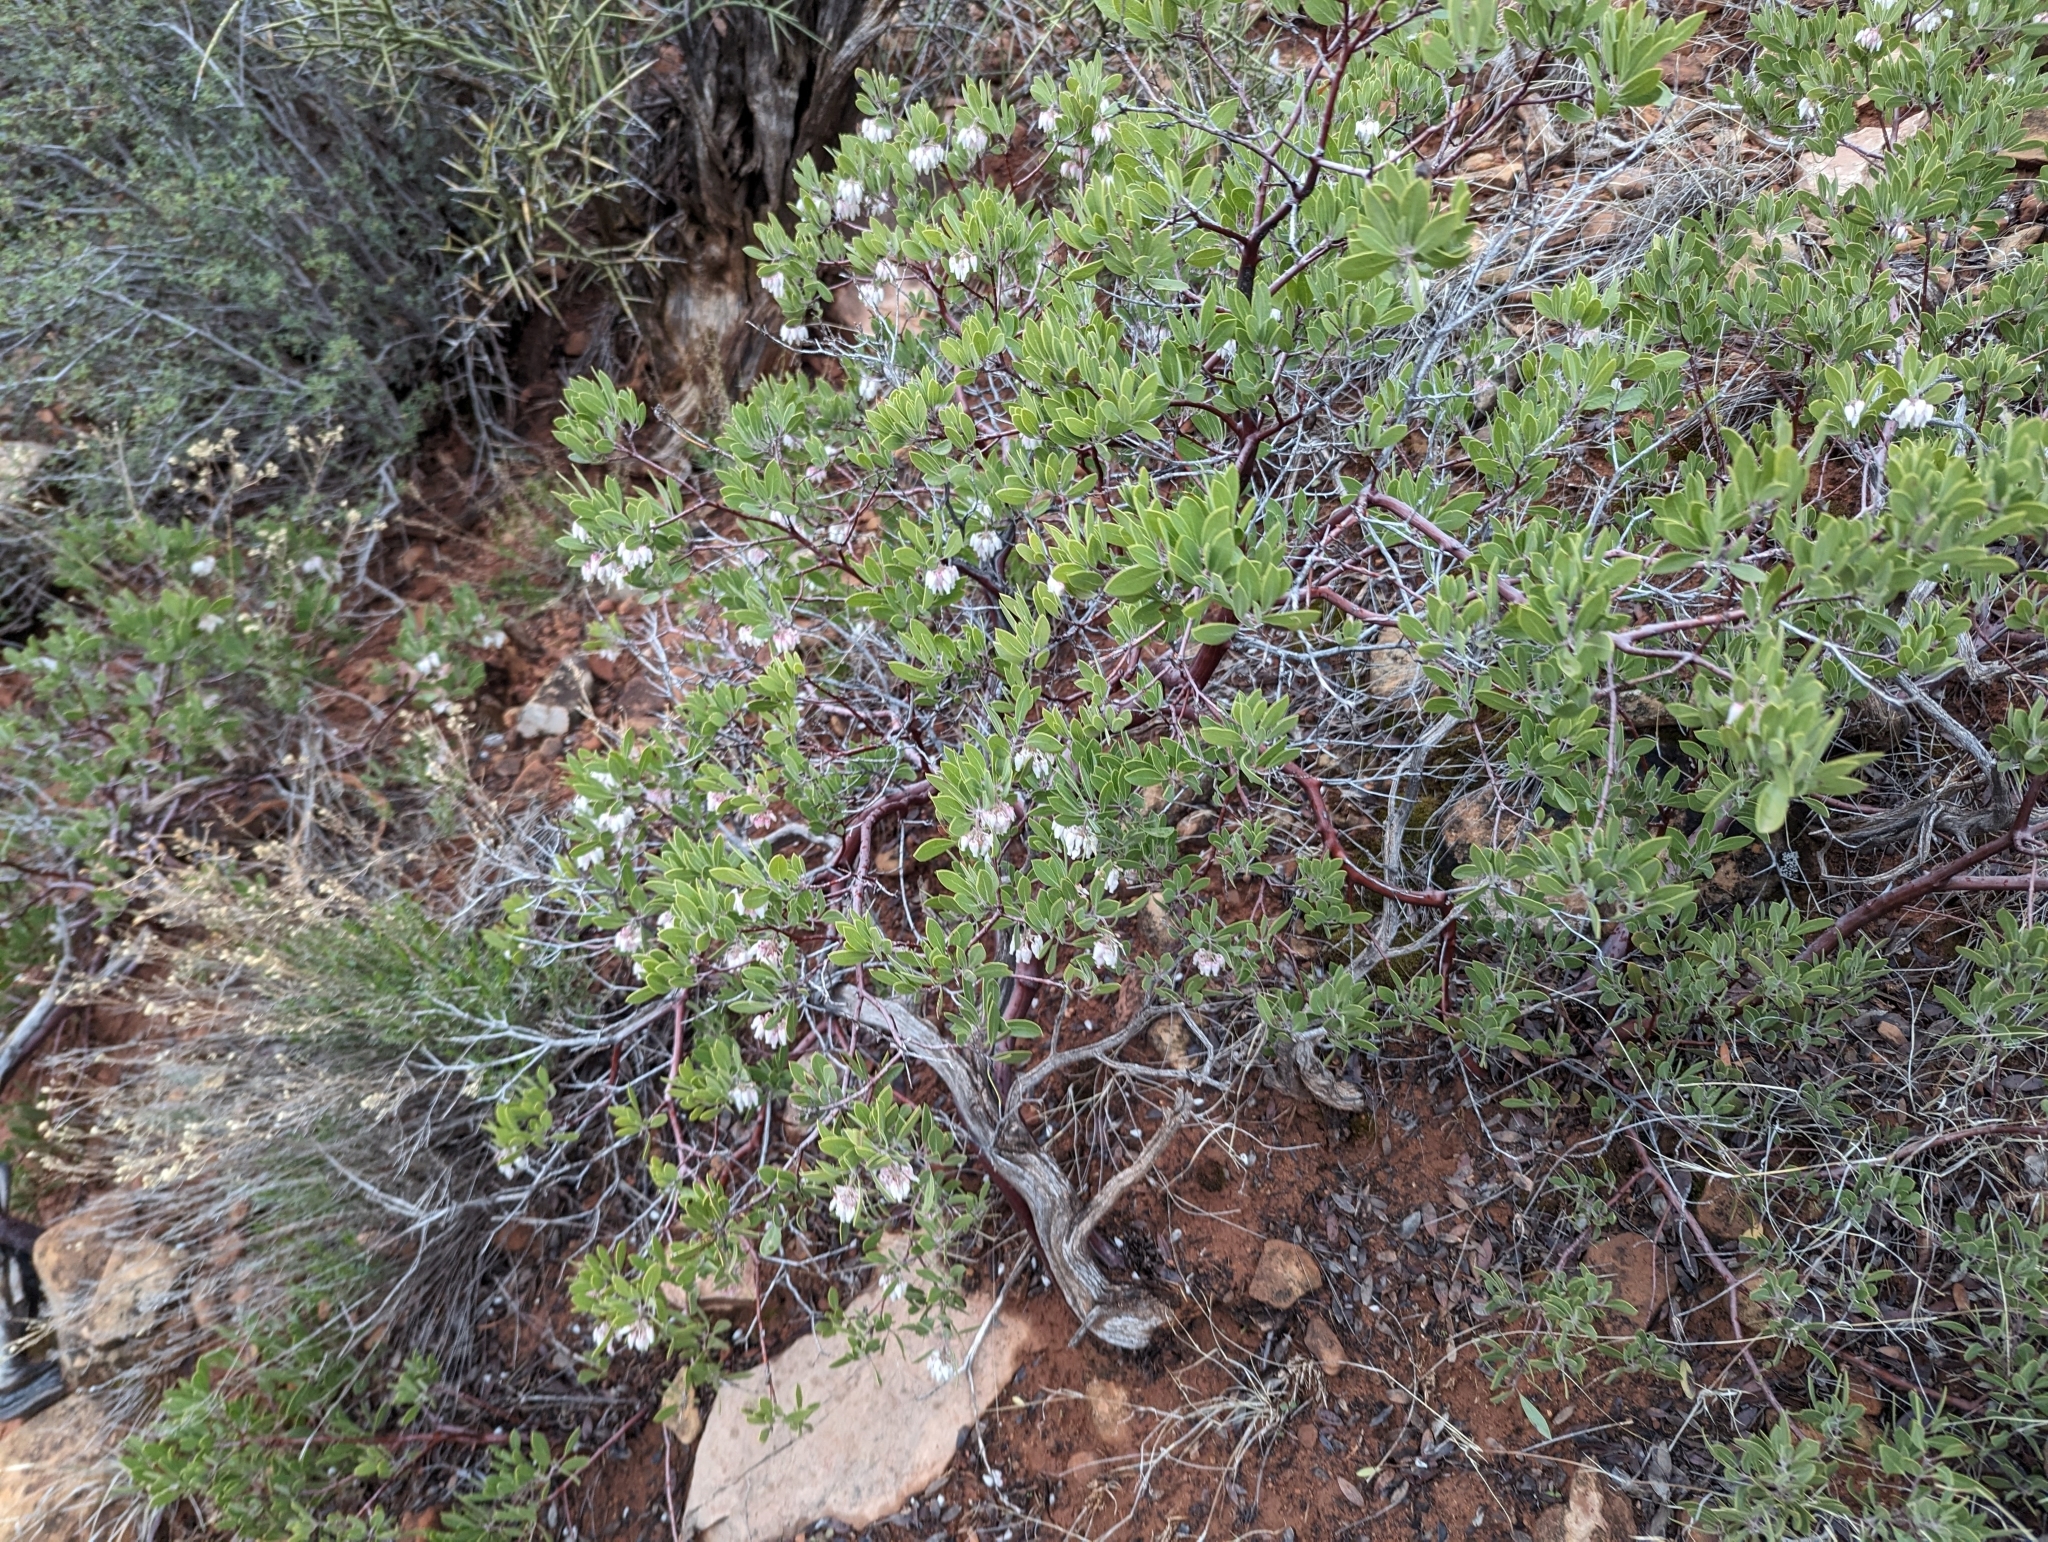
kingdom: Plantae
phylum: Tracheophyta
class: Magnoliopsida
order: Ericales
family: Ericaceae
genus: Arctostaphylos
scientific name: Arctostaphylos pungens
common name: Mexican manzanita
